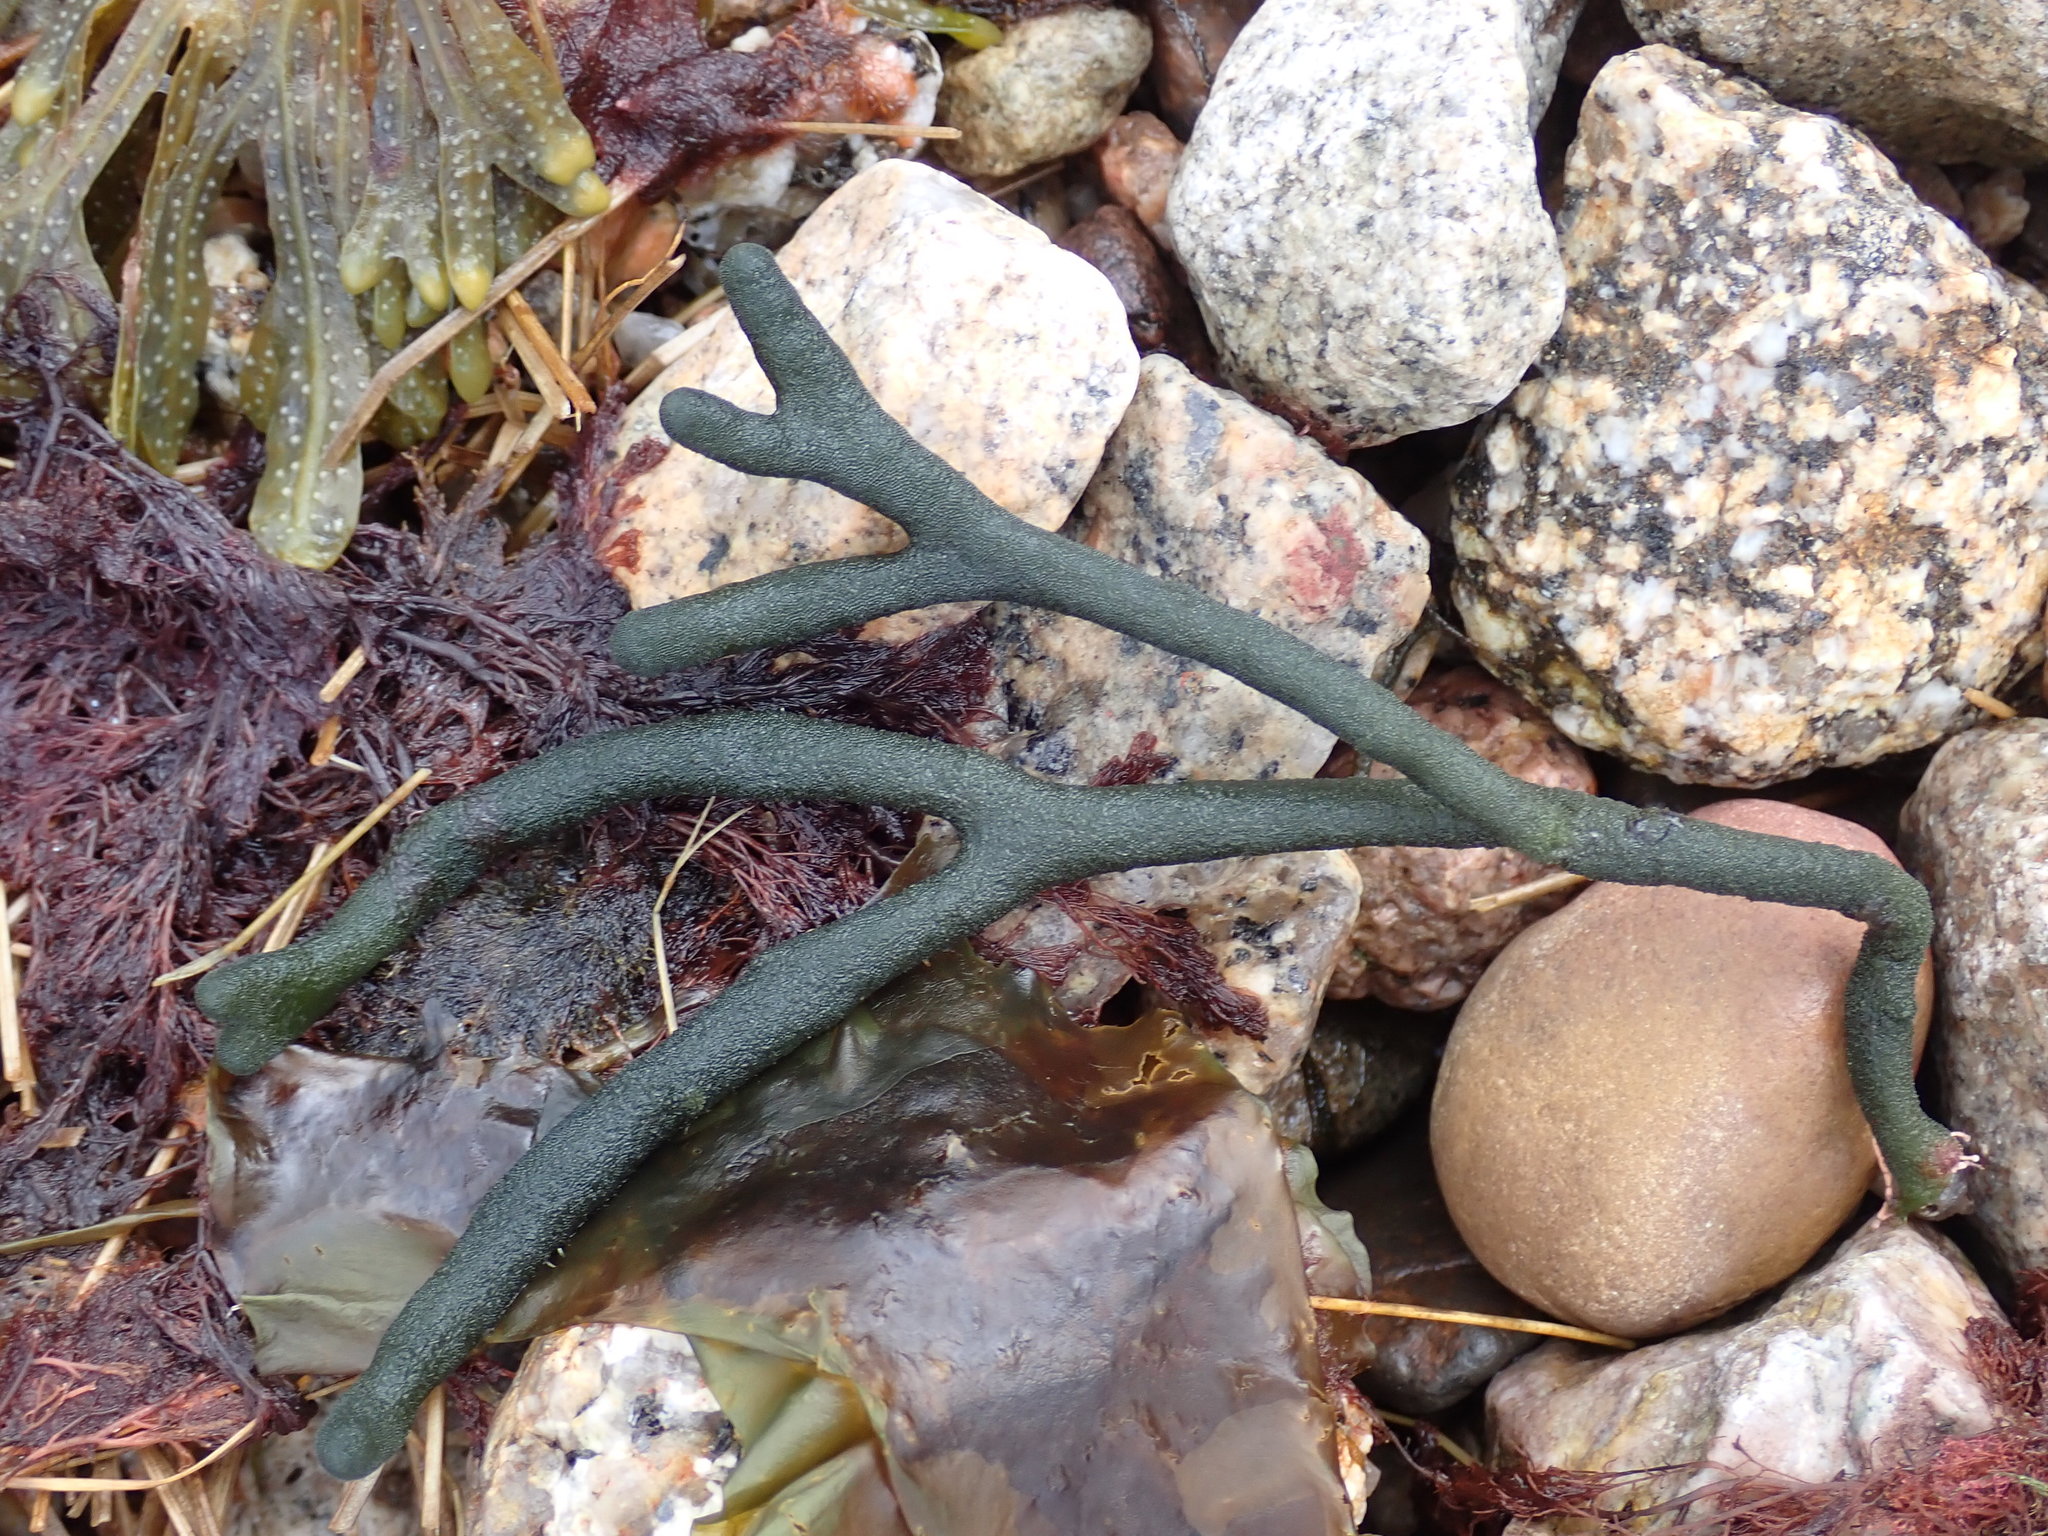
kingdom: Plantae
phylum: Chlorophyta
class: Ulvophyceae
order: Bryopsidales
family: Codiaceae
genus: Codium
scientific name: Codium fragile
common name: Dead man's fingers
